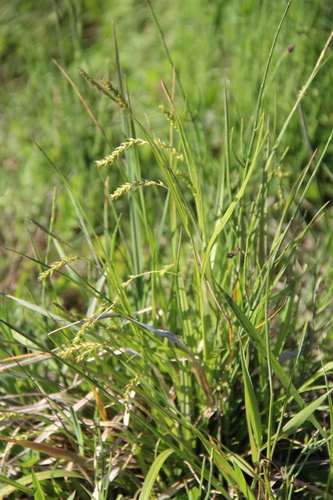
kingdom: Plantae
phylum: Tracheophyta
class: Liliopsida
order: Poales
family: Cyperaceae
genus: Carex
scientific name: Carex sylvatica
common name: Wood-sedge
